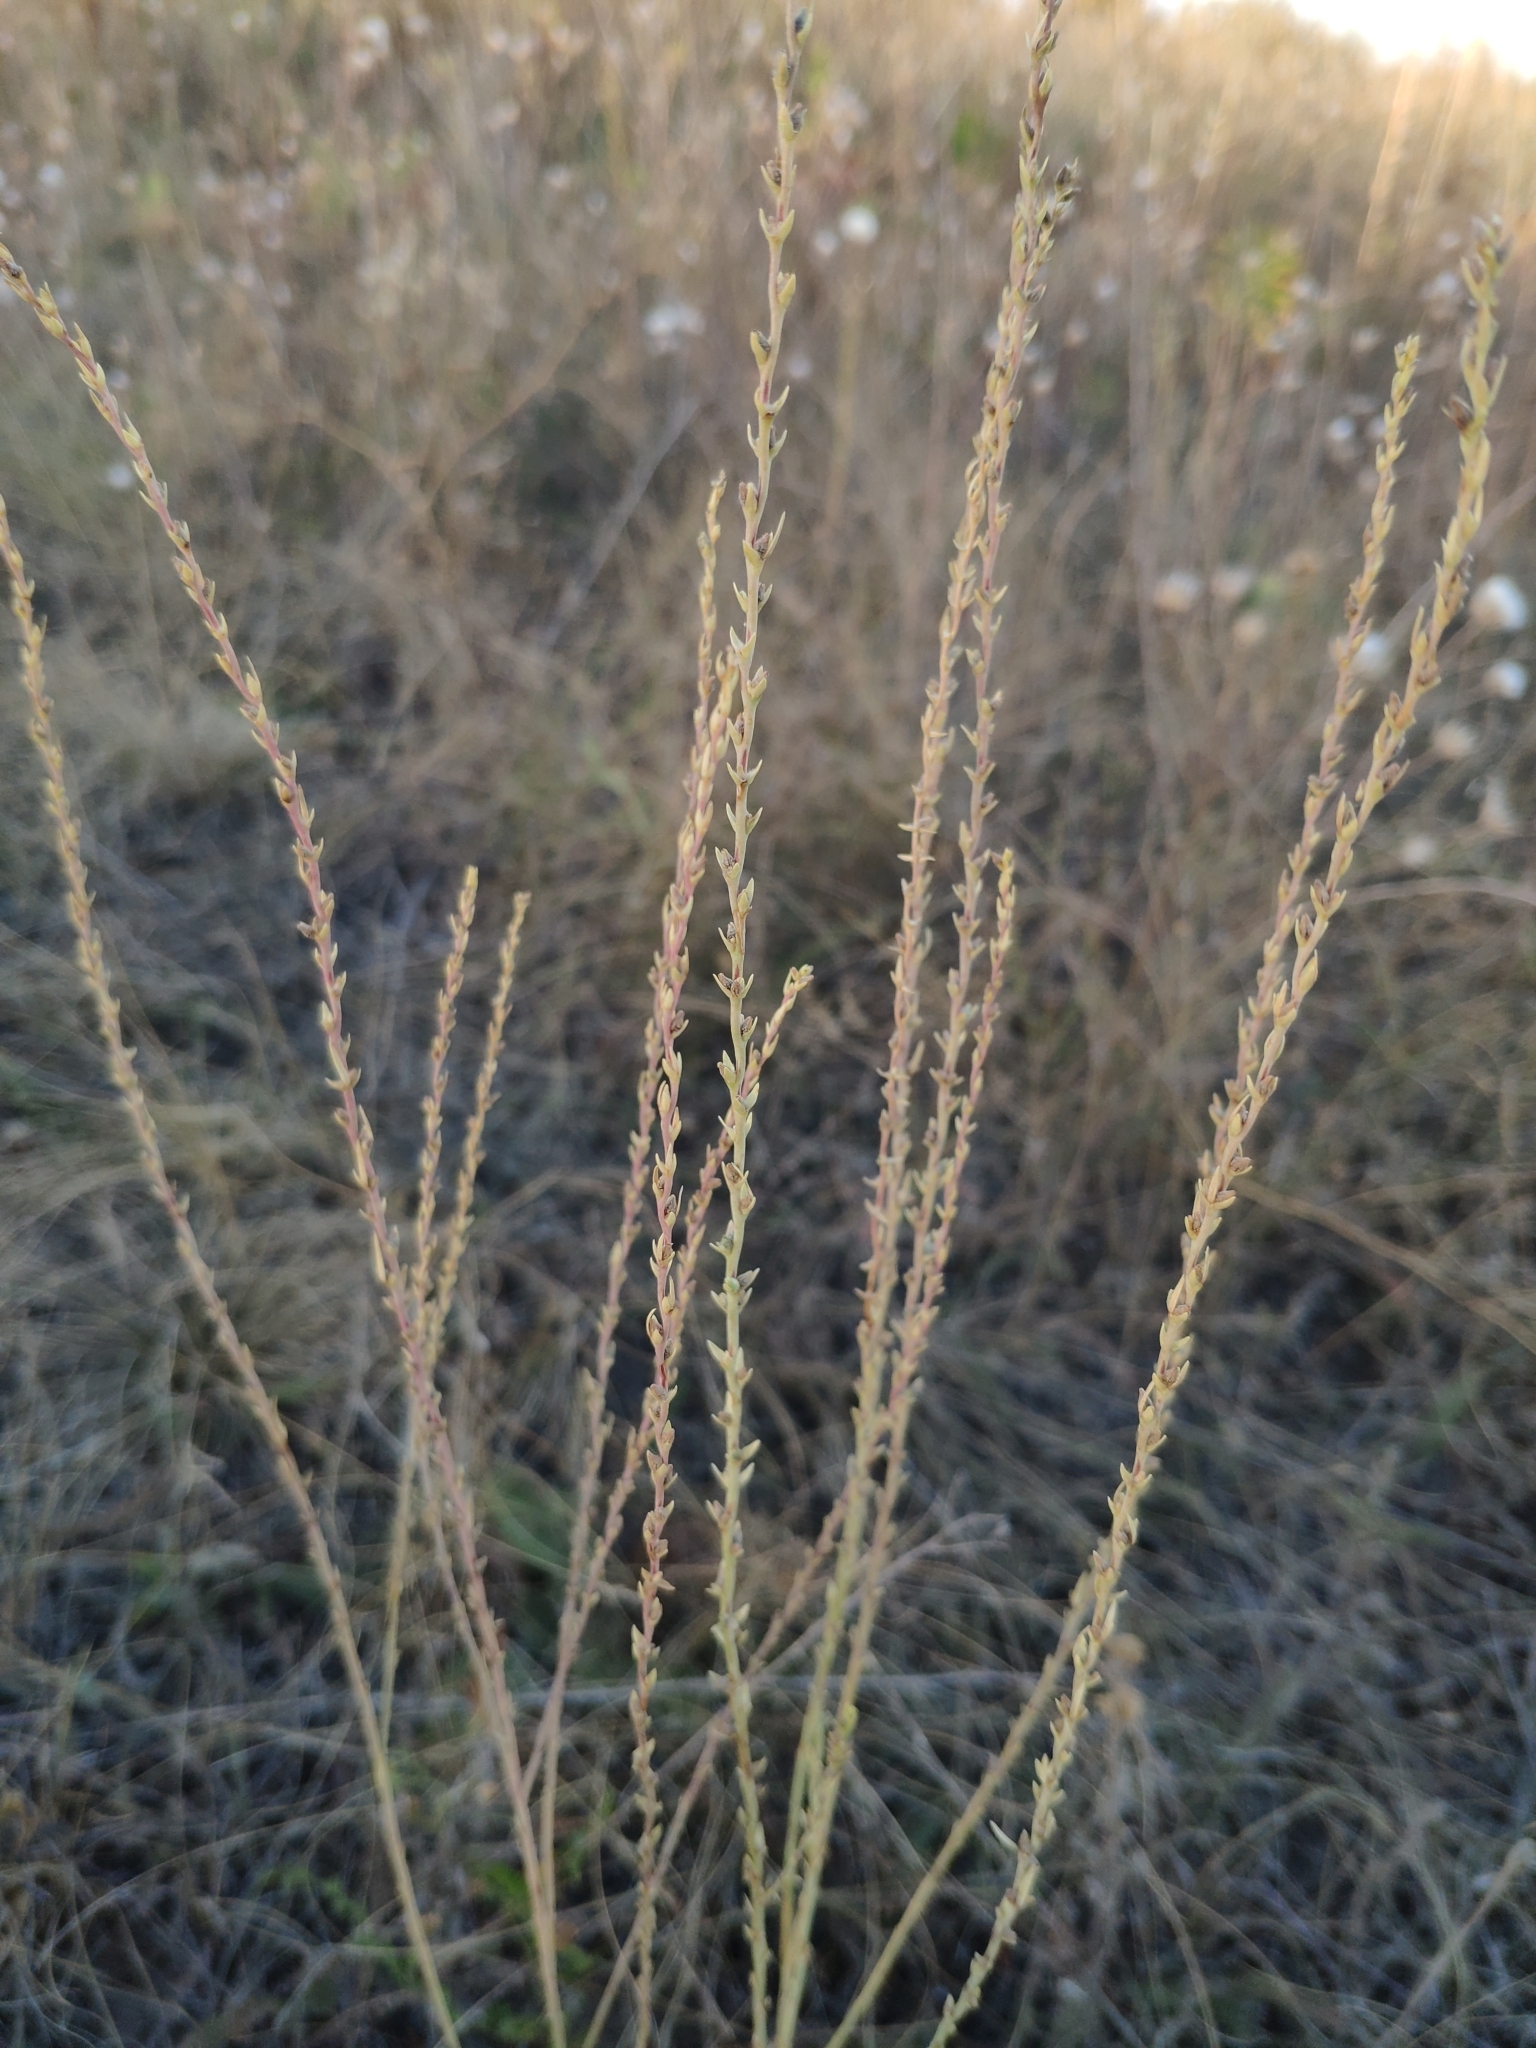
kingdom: Plantae
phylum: Tracheophyta
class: Magnoliopsida
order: Malvales
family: Thymelaeaceae
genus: Thymelaea
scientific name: Thymelaea passerina
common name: Annual thymelaea
